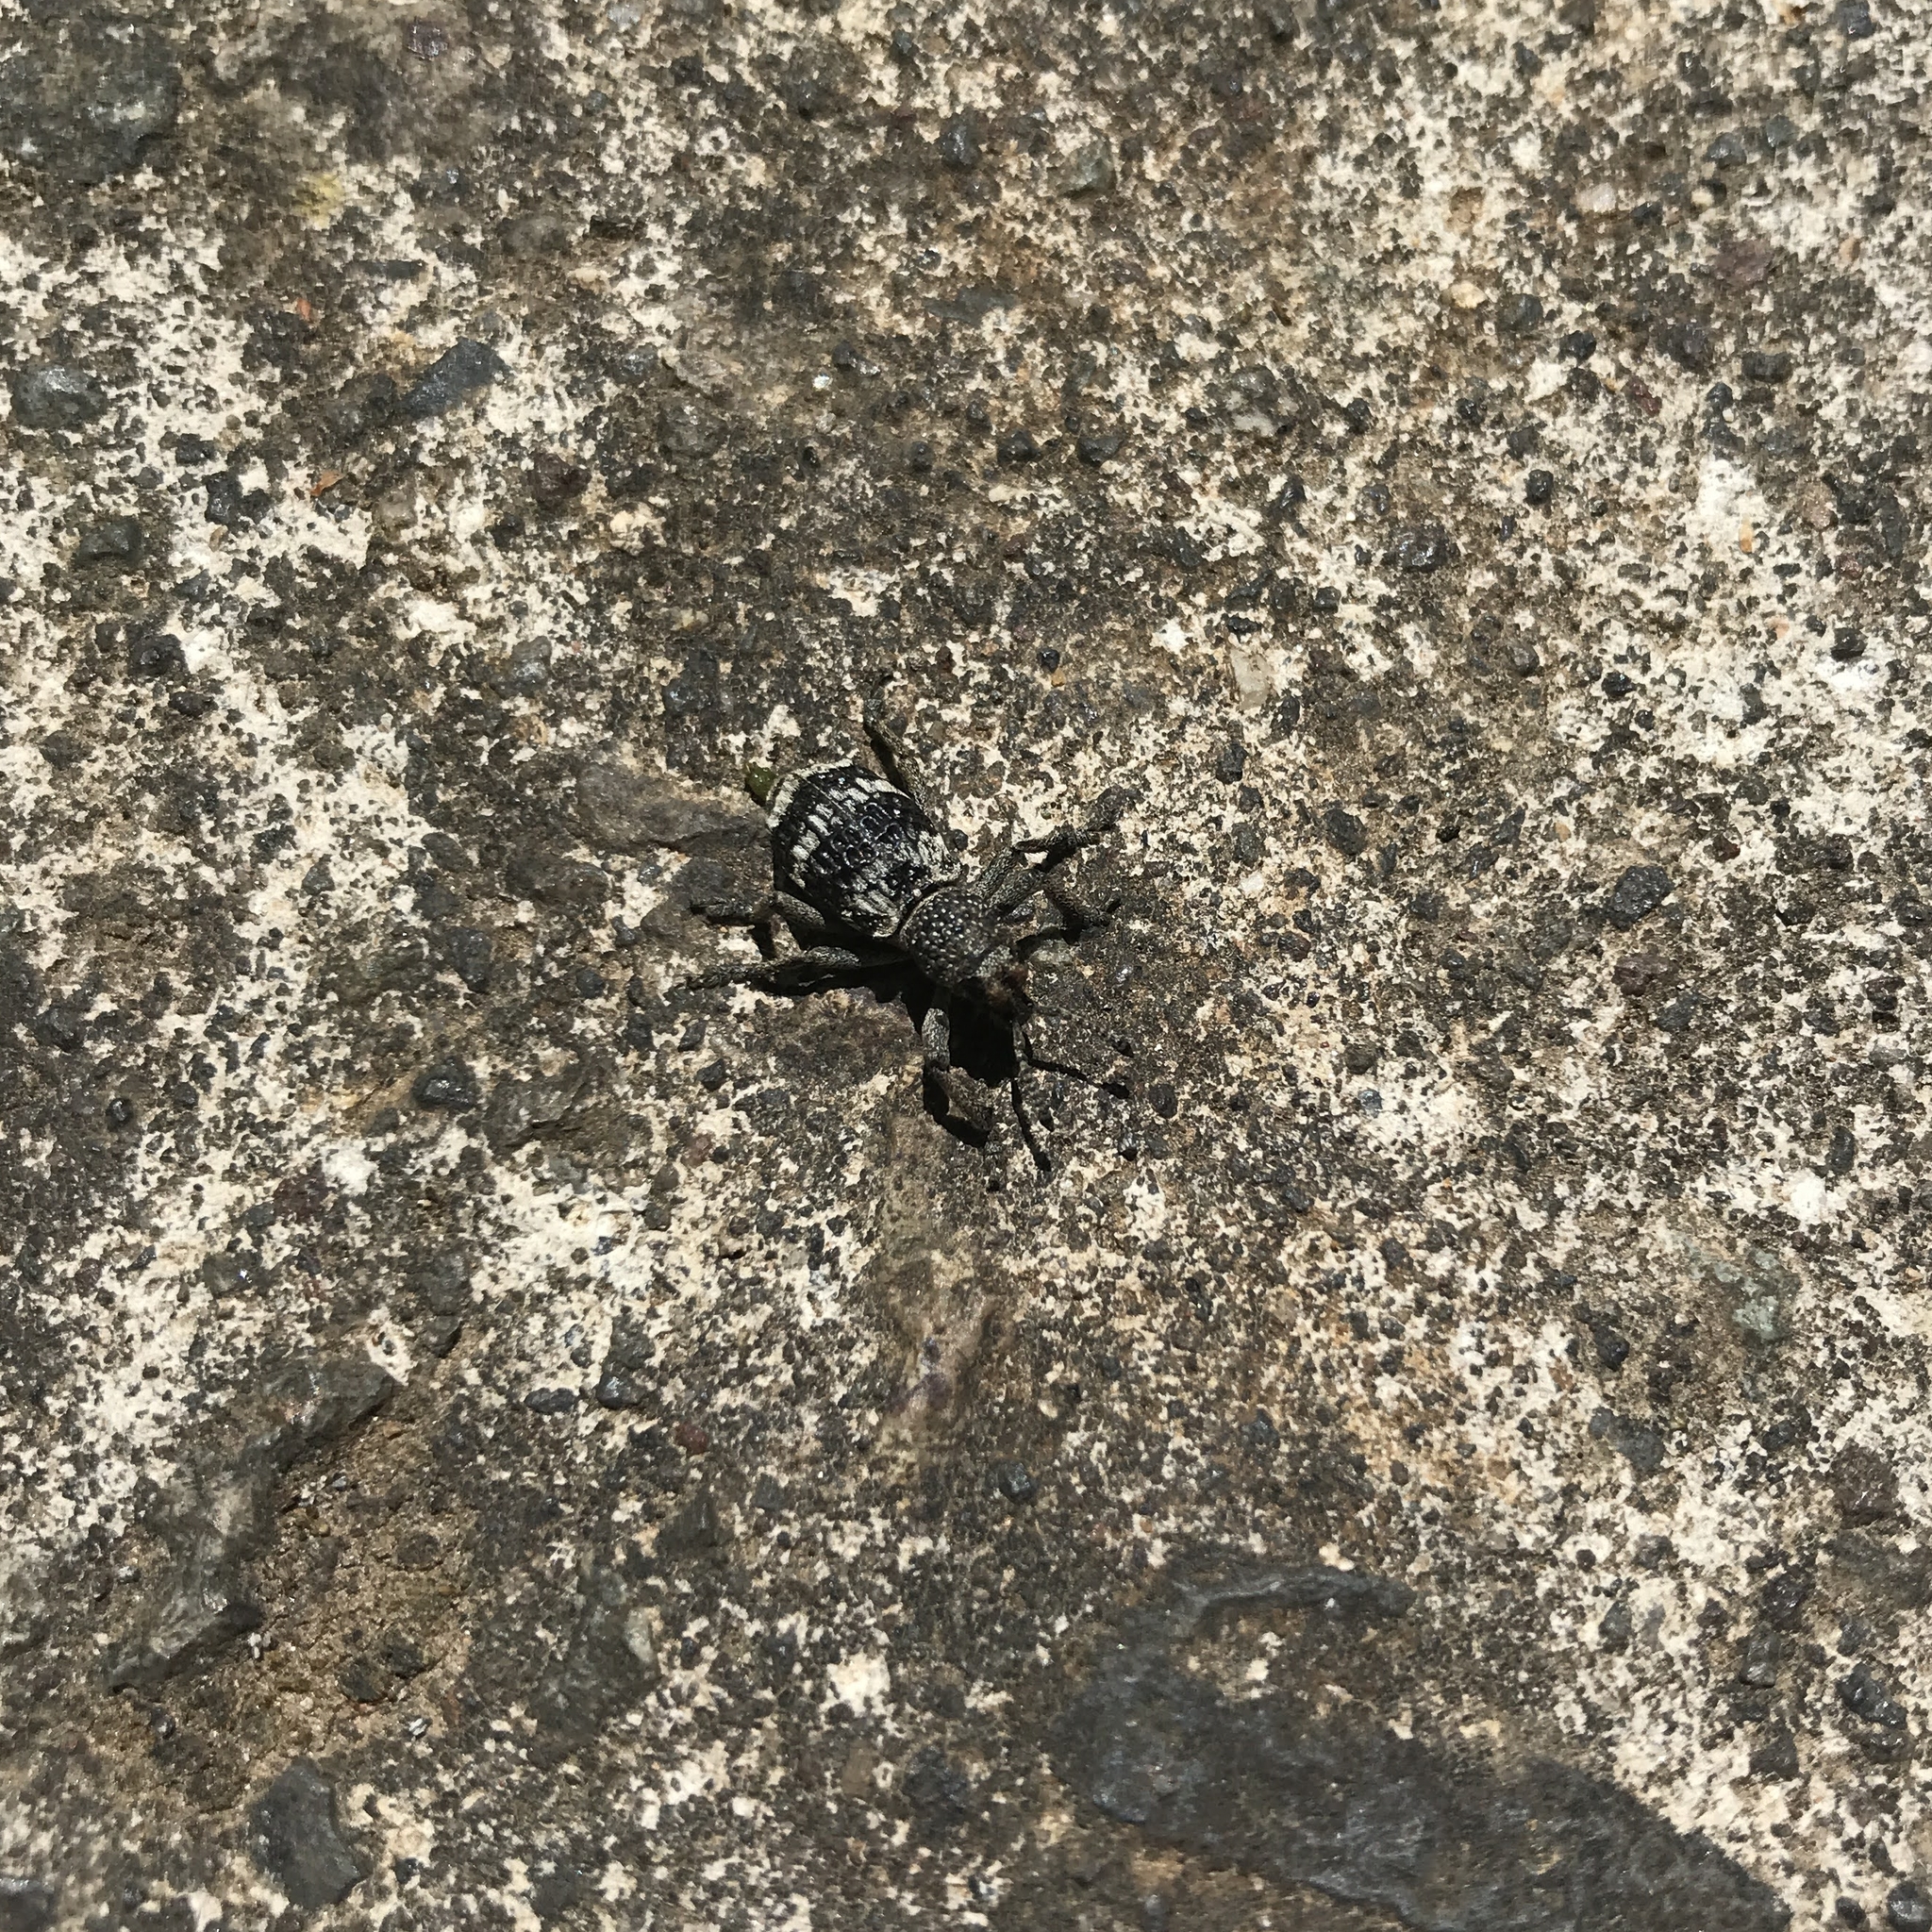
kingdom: Animalia
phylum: Arthropoda
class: Insecta
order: Coleoptera
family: Curculionidae
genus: Aegorhinus
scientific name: Aegorhinus superciliosus
